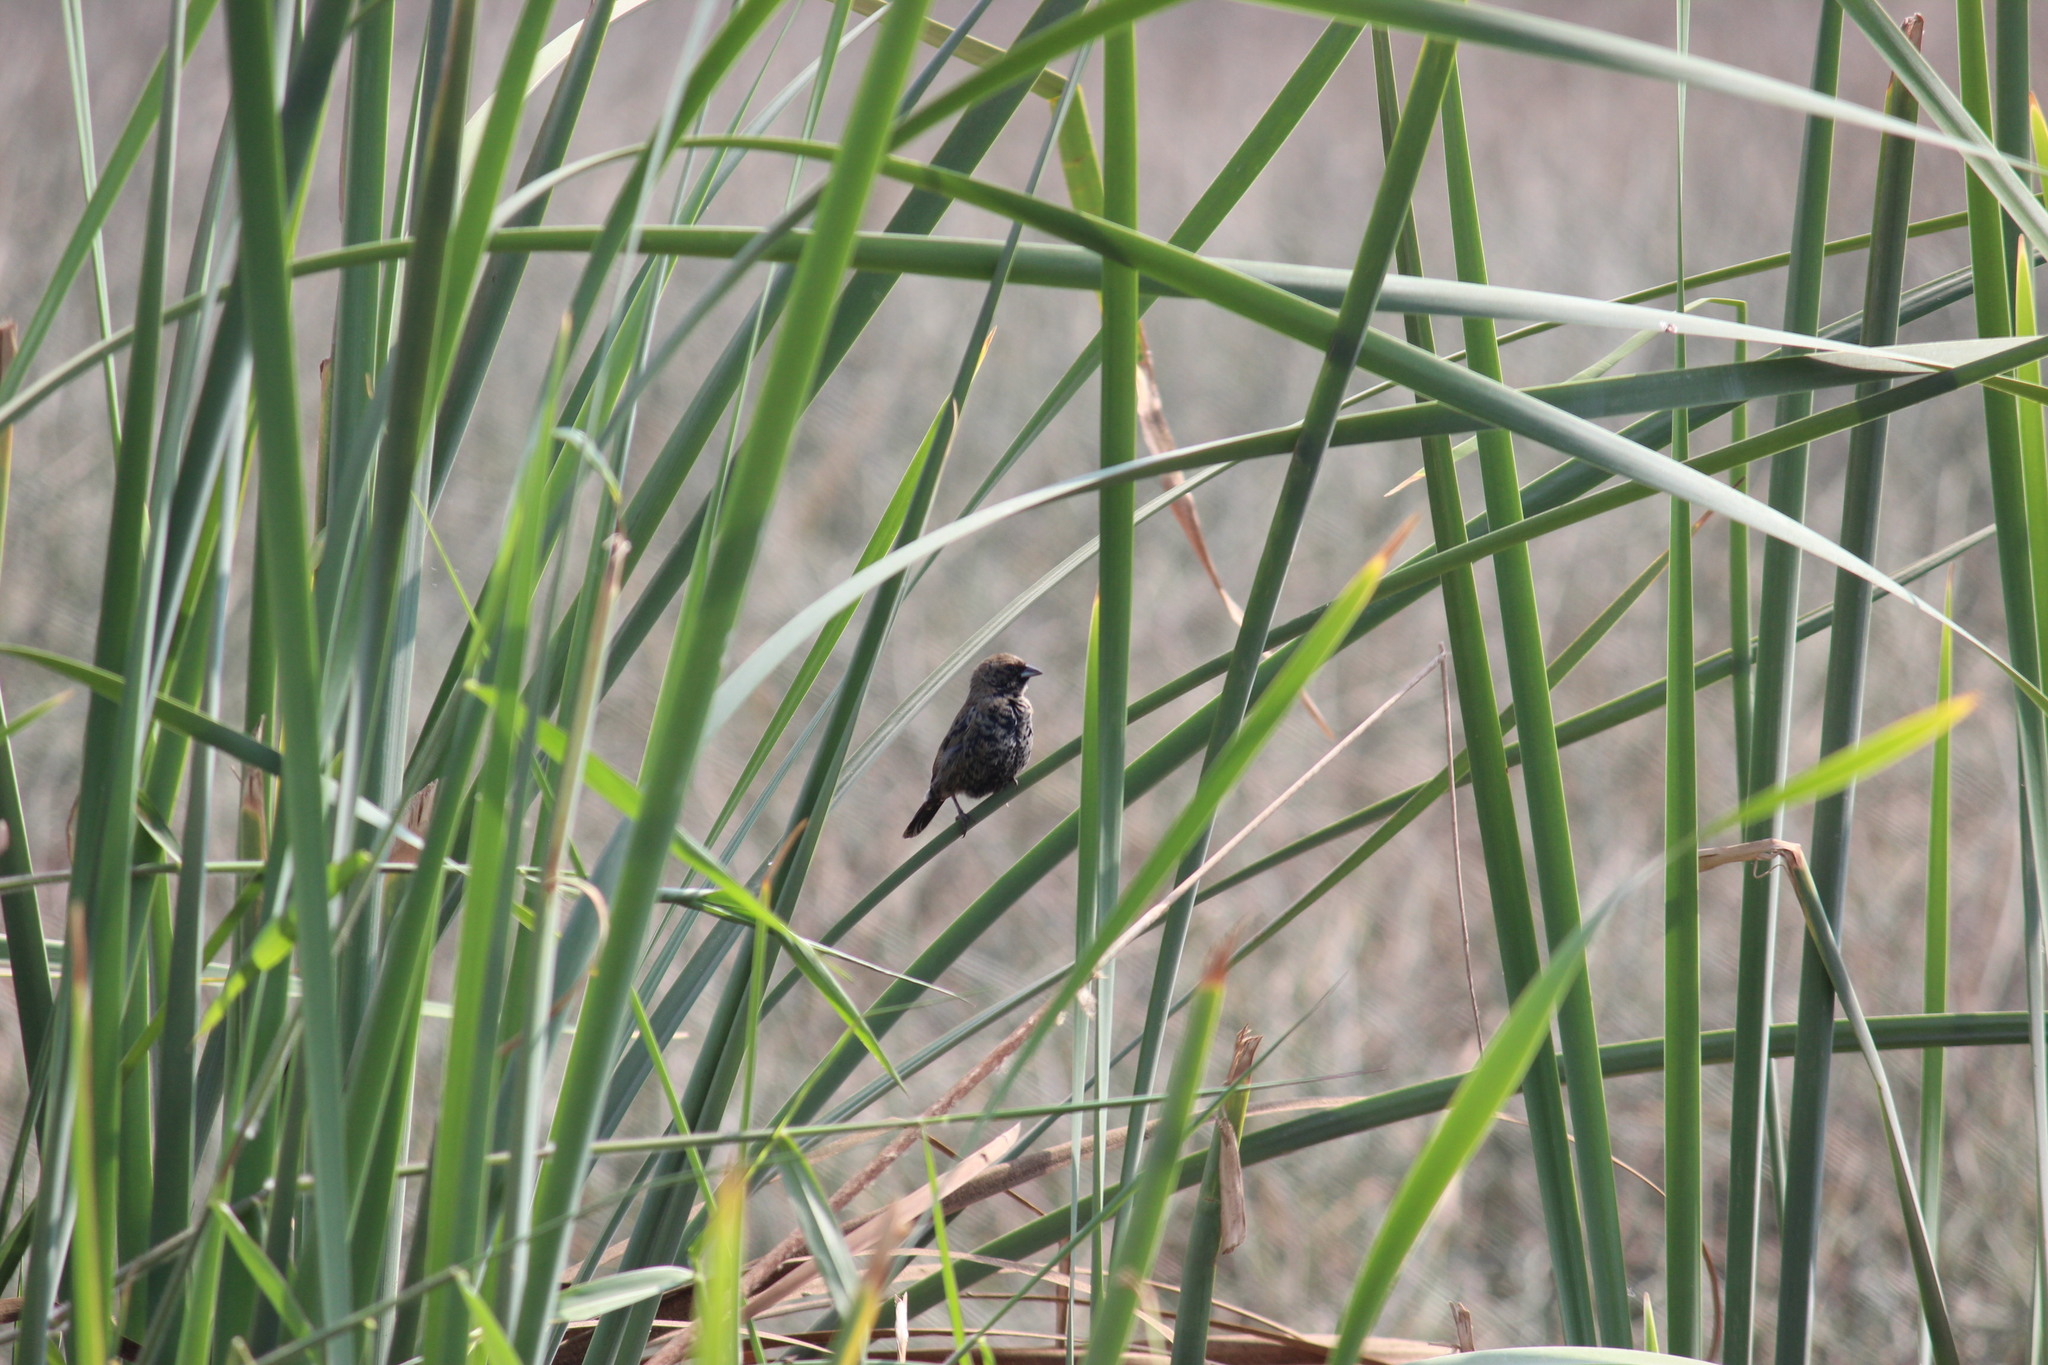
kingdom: Animalia
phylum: Chordata
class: Aves
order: Passeriformes
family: Thraupidae
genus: Volatinia
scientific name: Volatinia jacarina
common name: Blue-black grassquit
